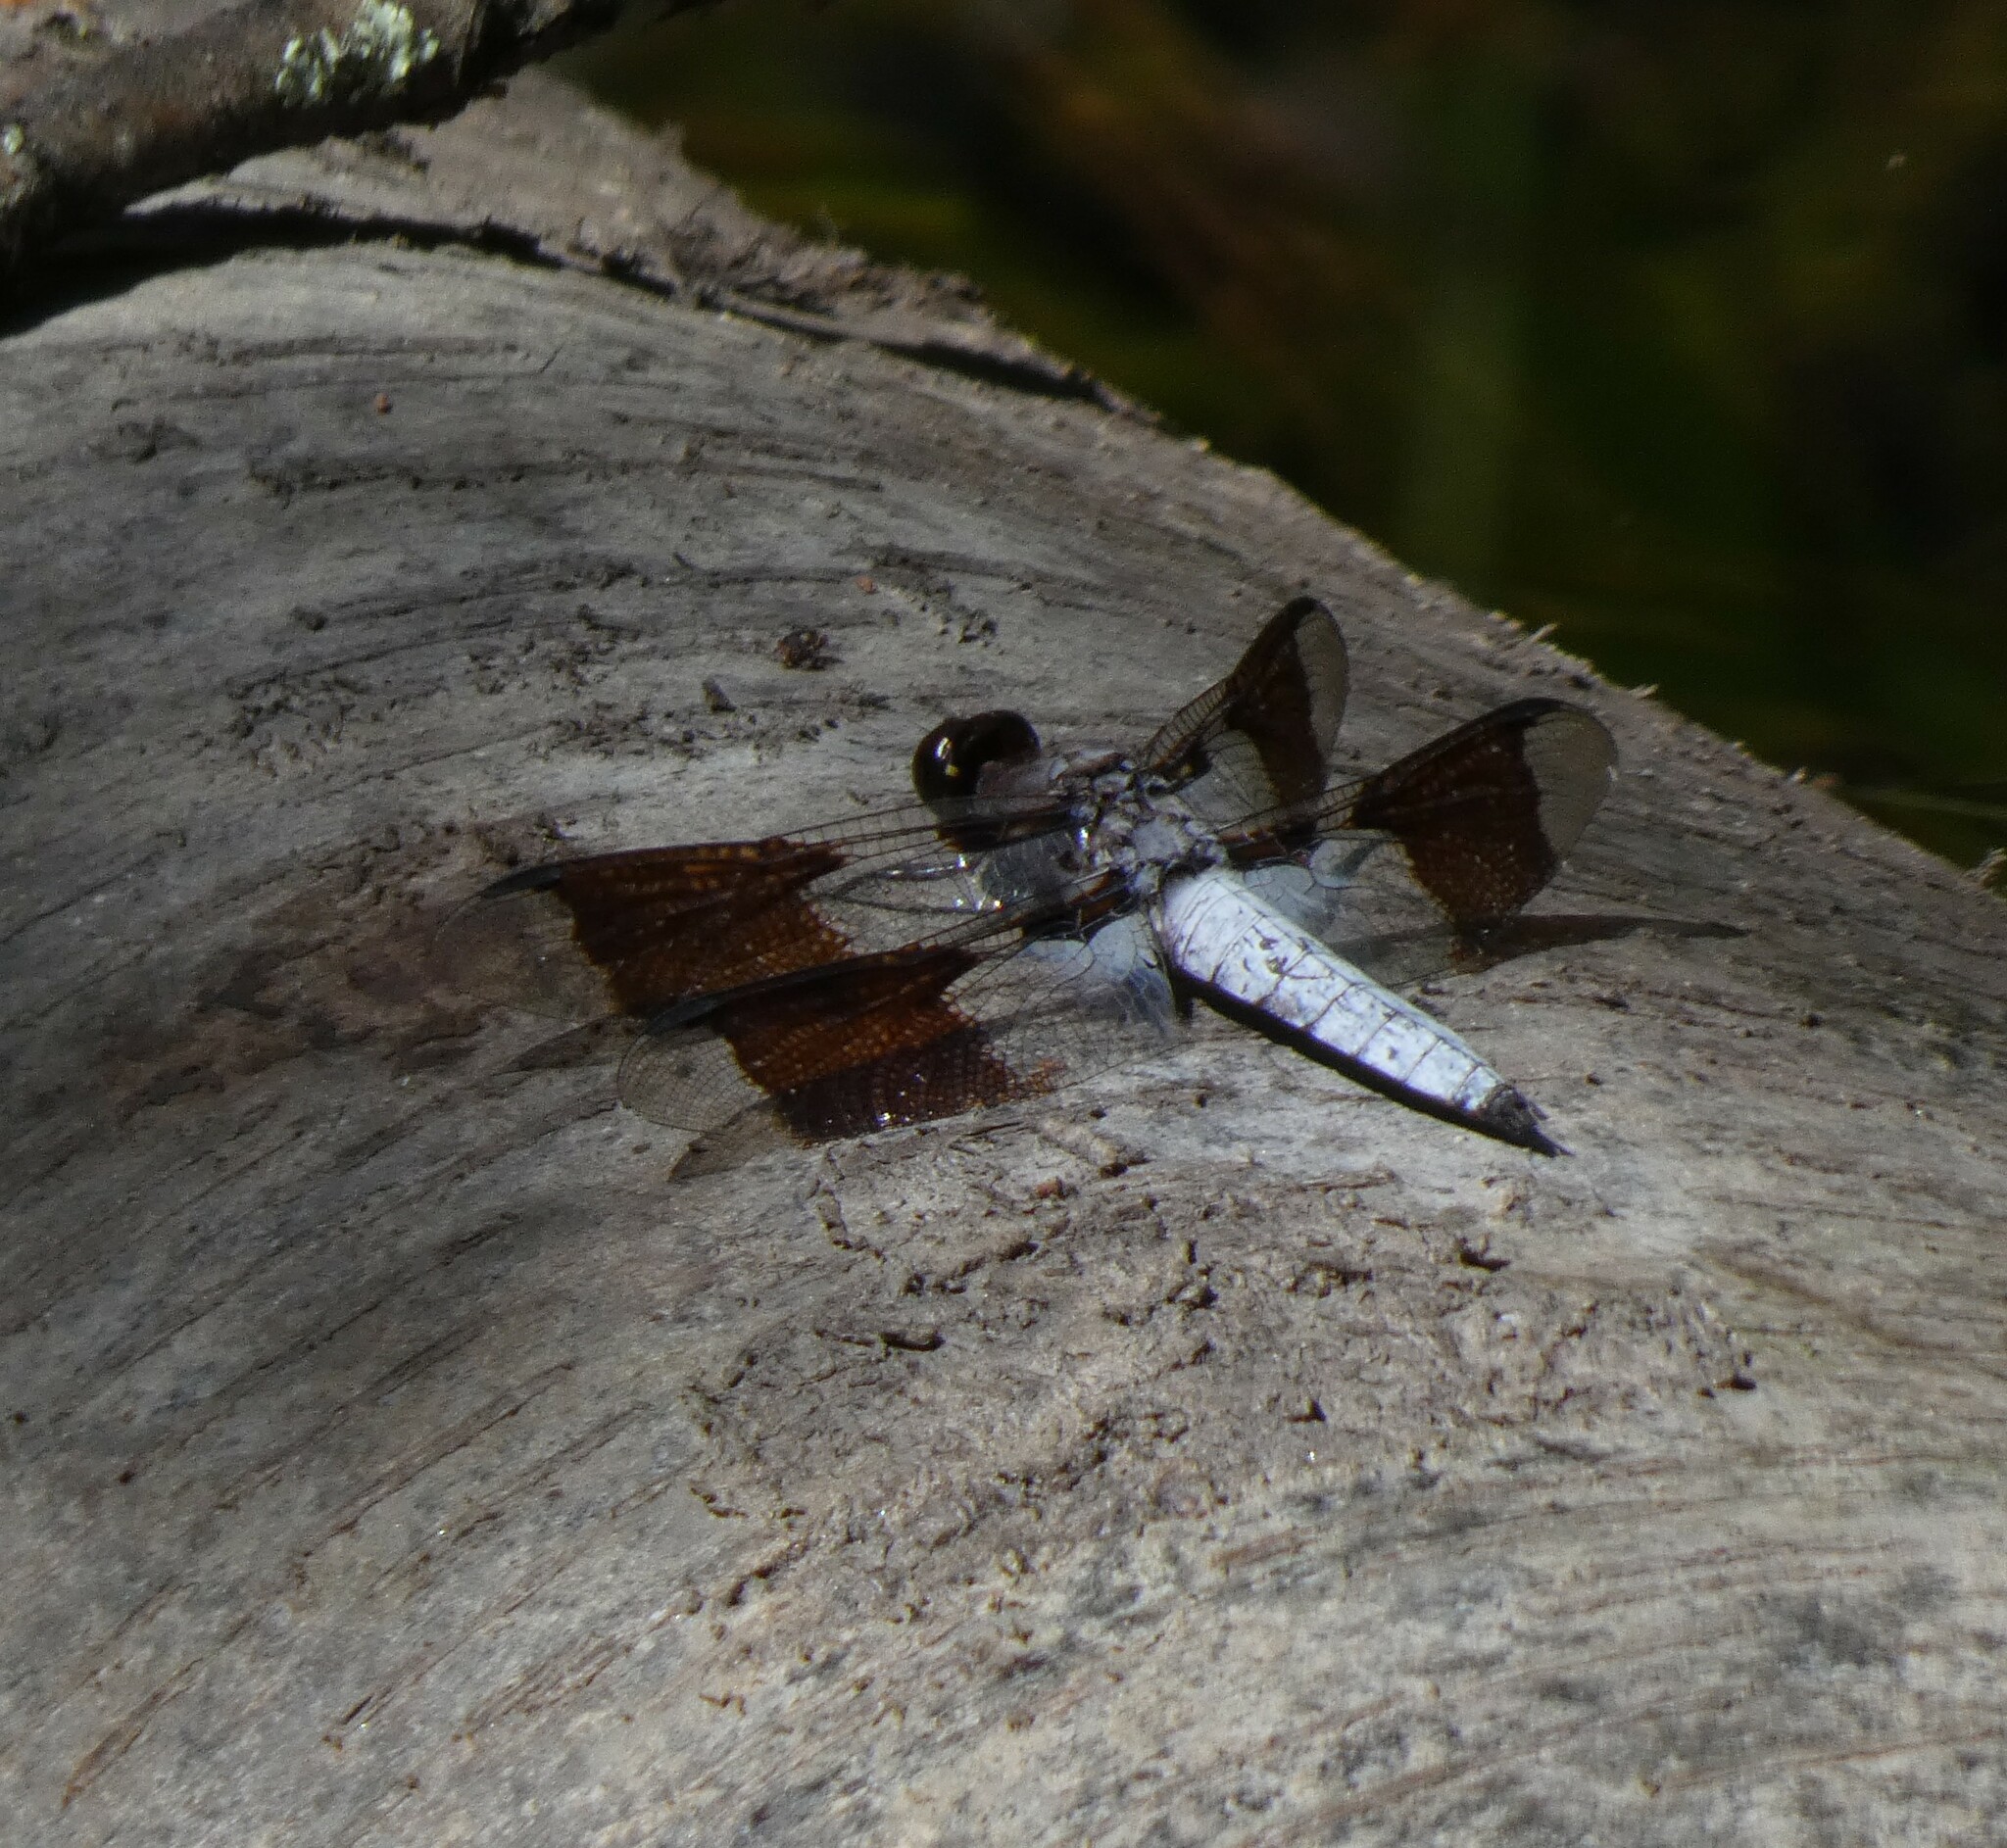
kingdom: Animalia
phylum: Arthropoda
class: Insecta
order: Odonata
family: Libellulidae
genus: Plathemis
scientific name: Plathemis lydia
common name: Common whitetail
